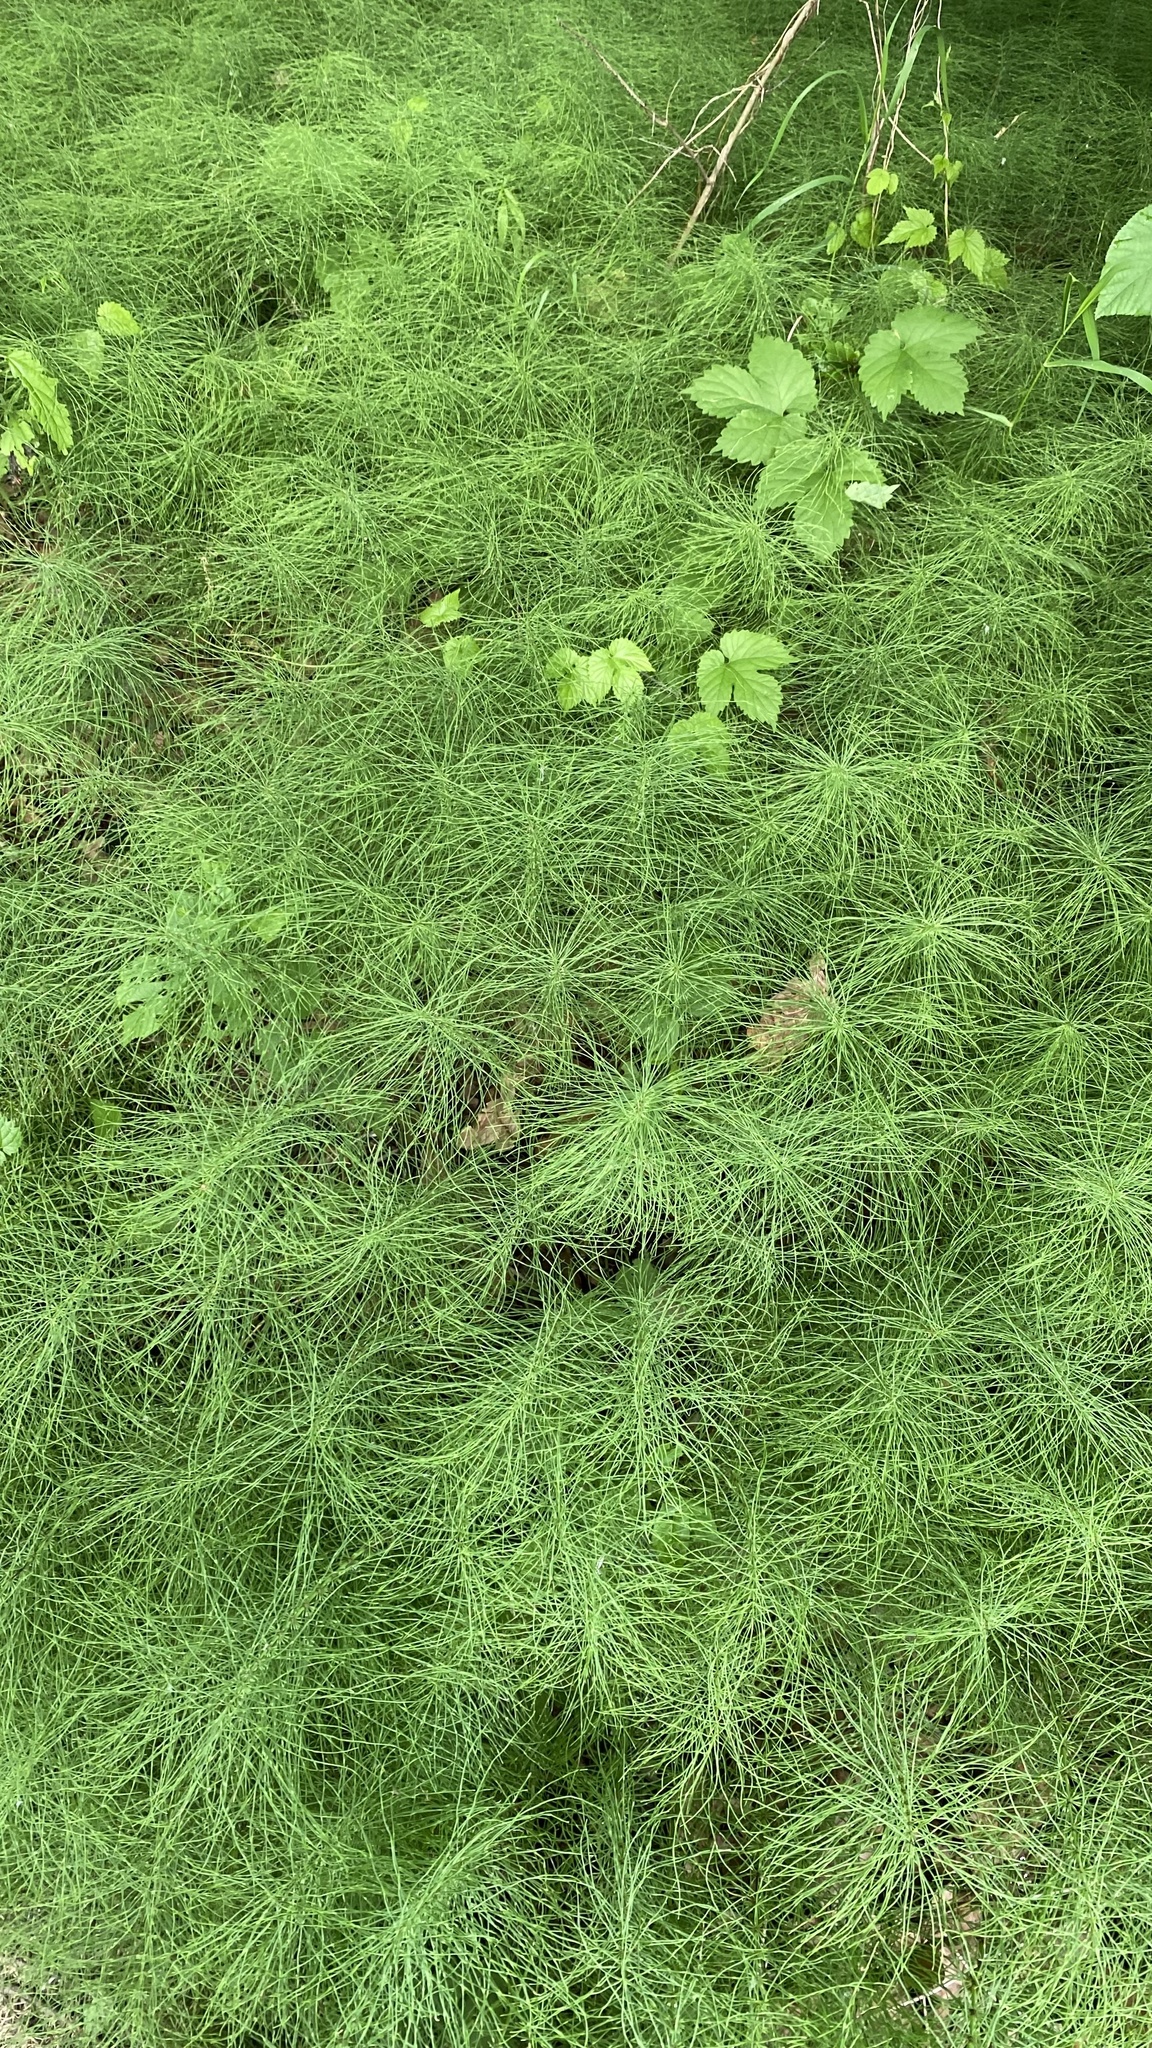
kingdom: Plantae
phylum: Tracheophyta
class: Polypodiopsida
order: Equisetales
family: Equisetaceae
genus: Equisetum
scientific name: Equisetum pratense
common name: Meadow horsetail
